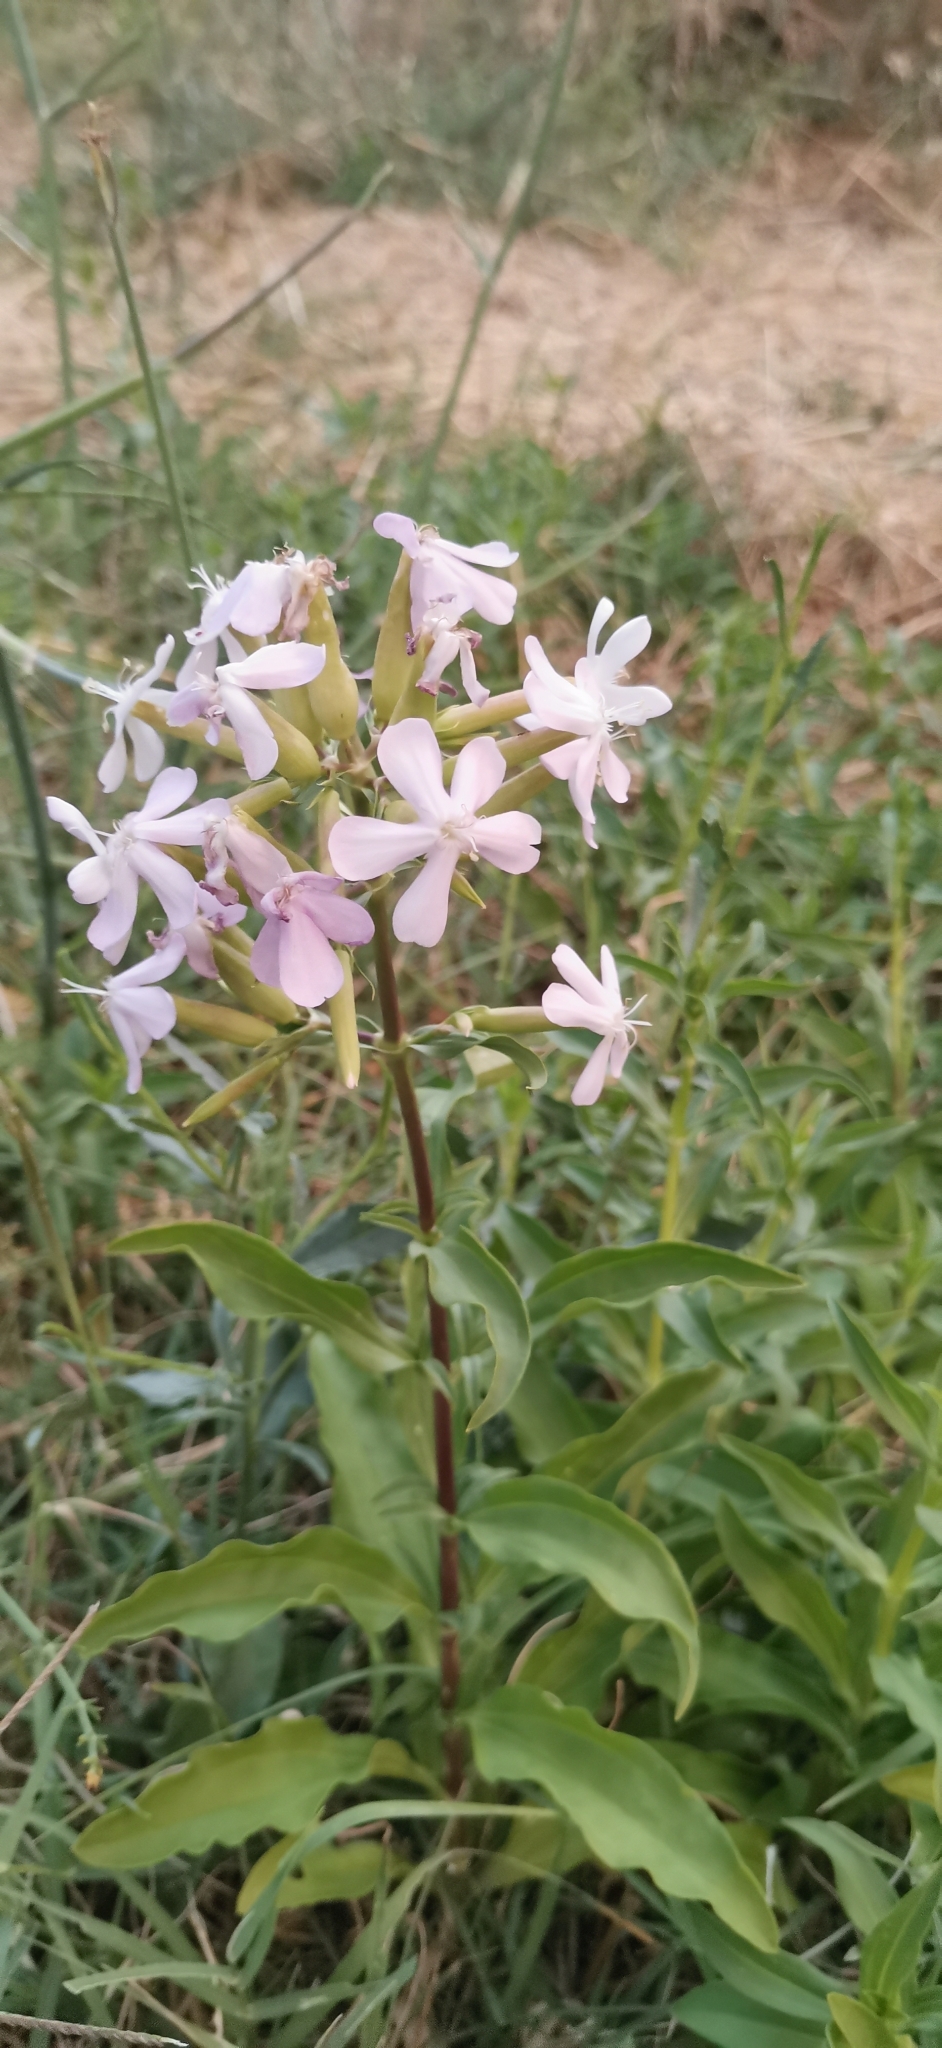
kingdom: Plantae
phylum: Tracheophyta
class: Magnoliopsida
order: Caryophyllales
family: Caryophyllaceae
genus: Saponaria
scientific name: Saponaria officinalis
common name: Soapwort
